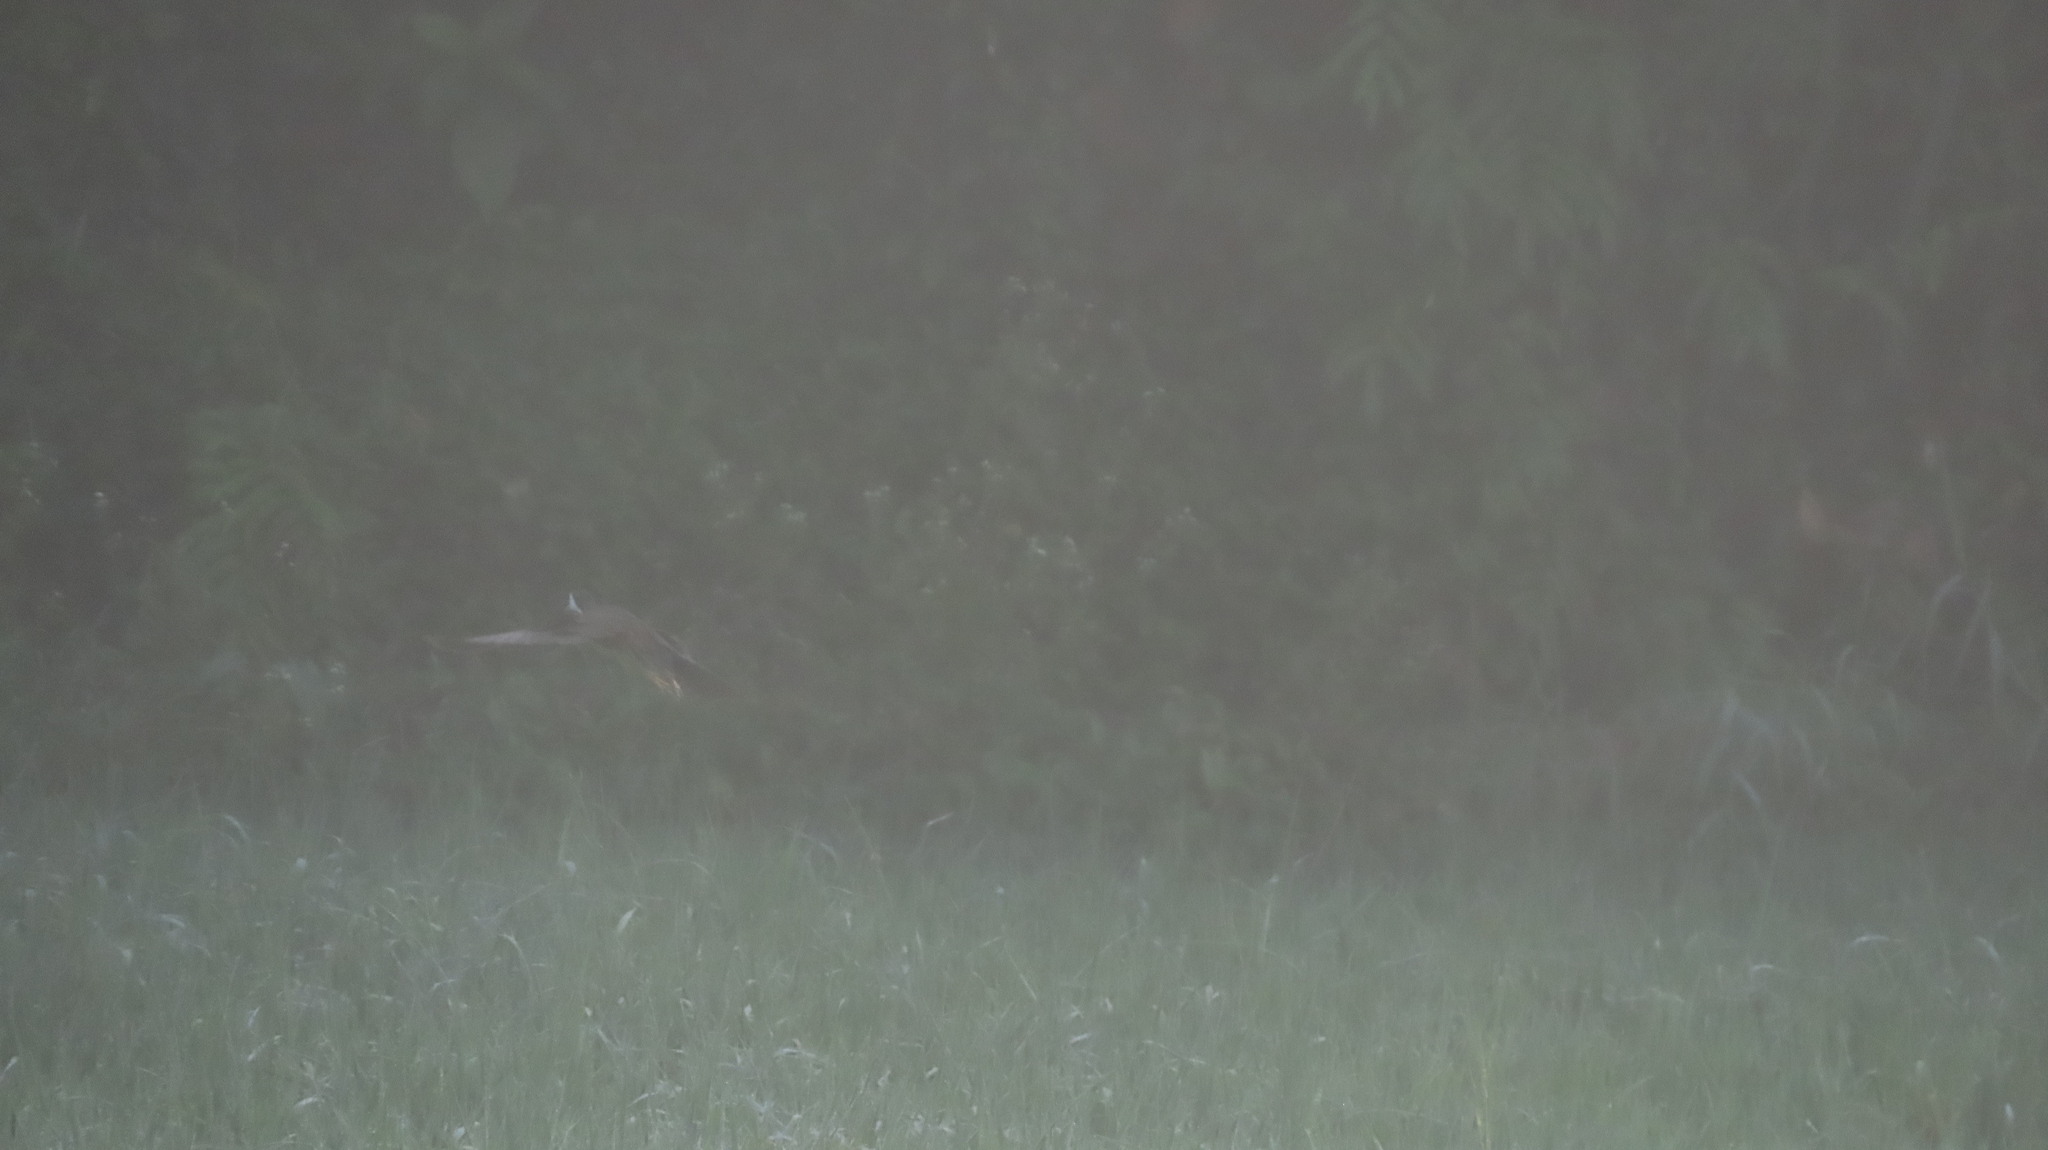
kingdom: Animalia
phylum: Chordata
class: Aves
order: Gruiformes
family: Rallidae
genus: Amaurornis
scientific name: Amaurornis phoenicurus
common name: White-breasted waterhen
